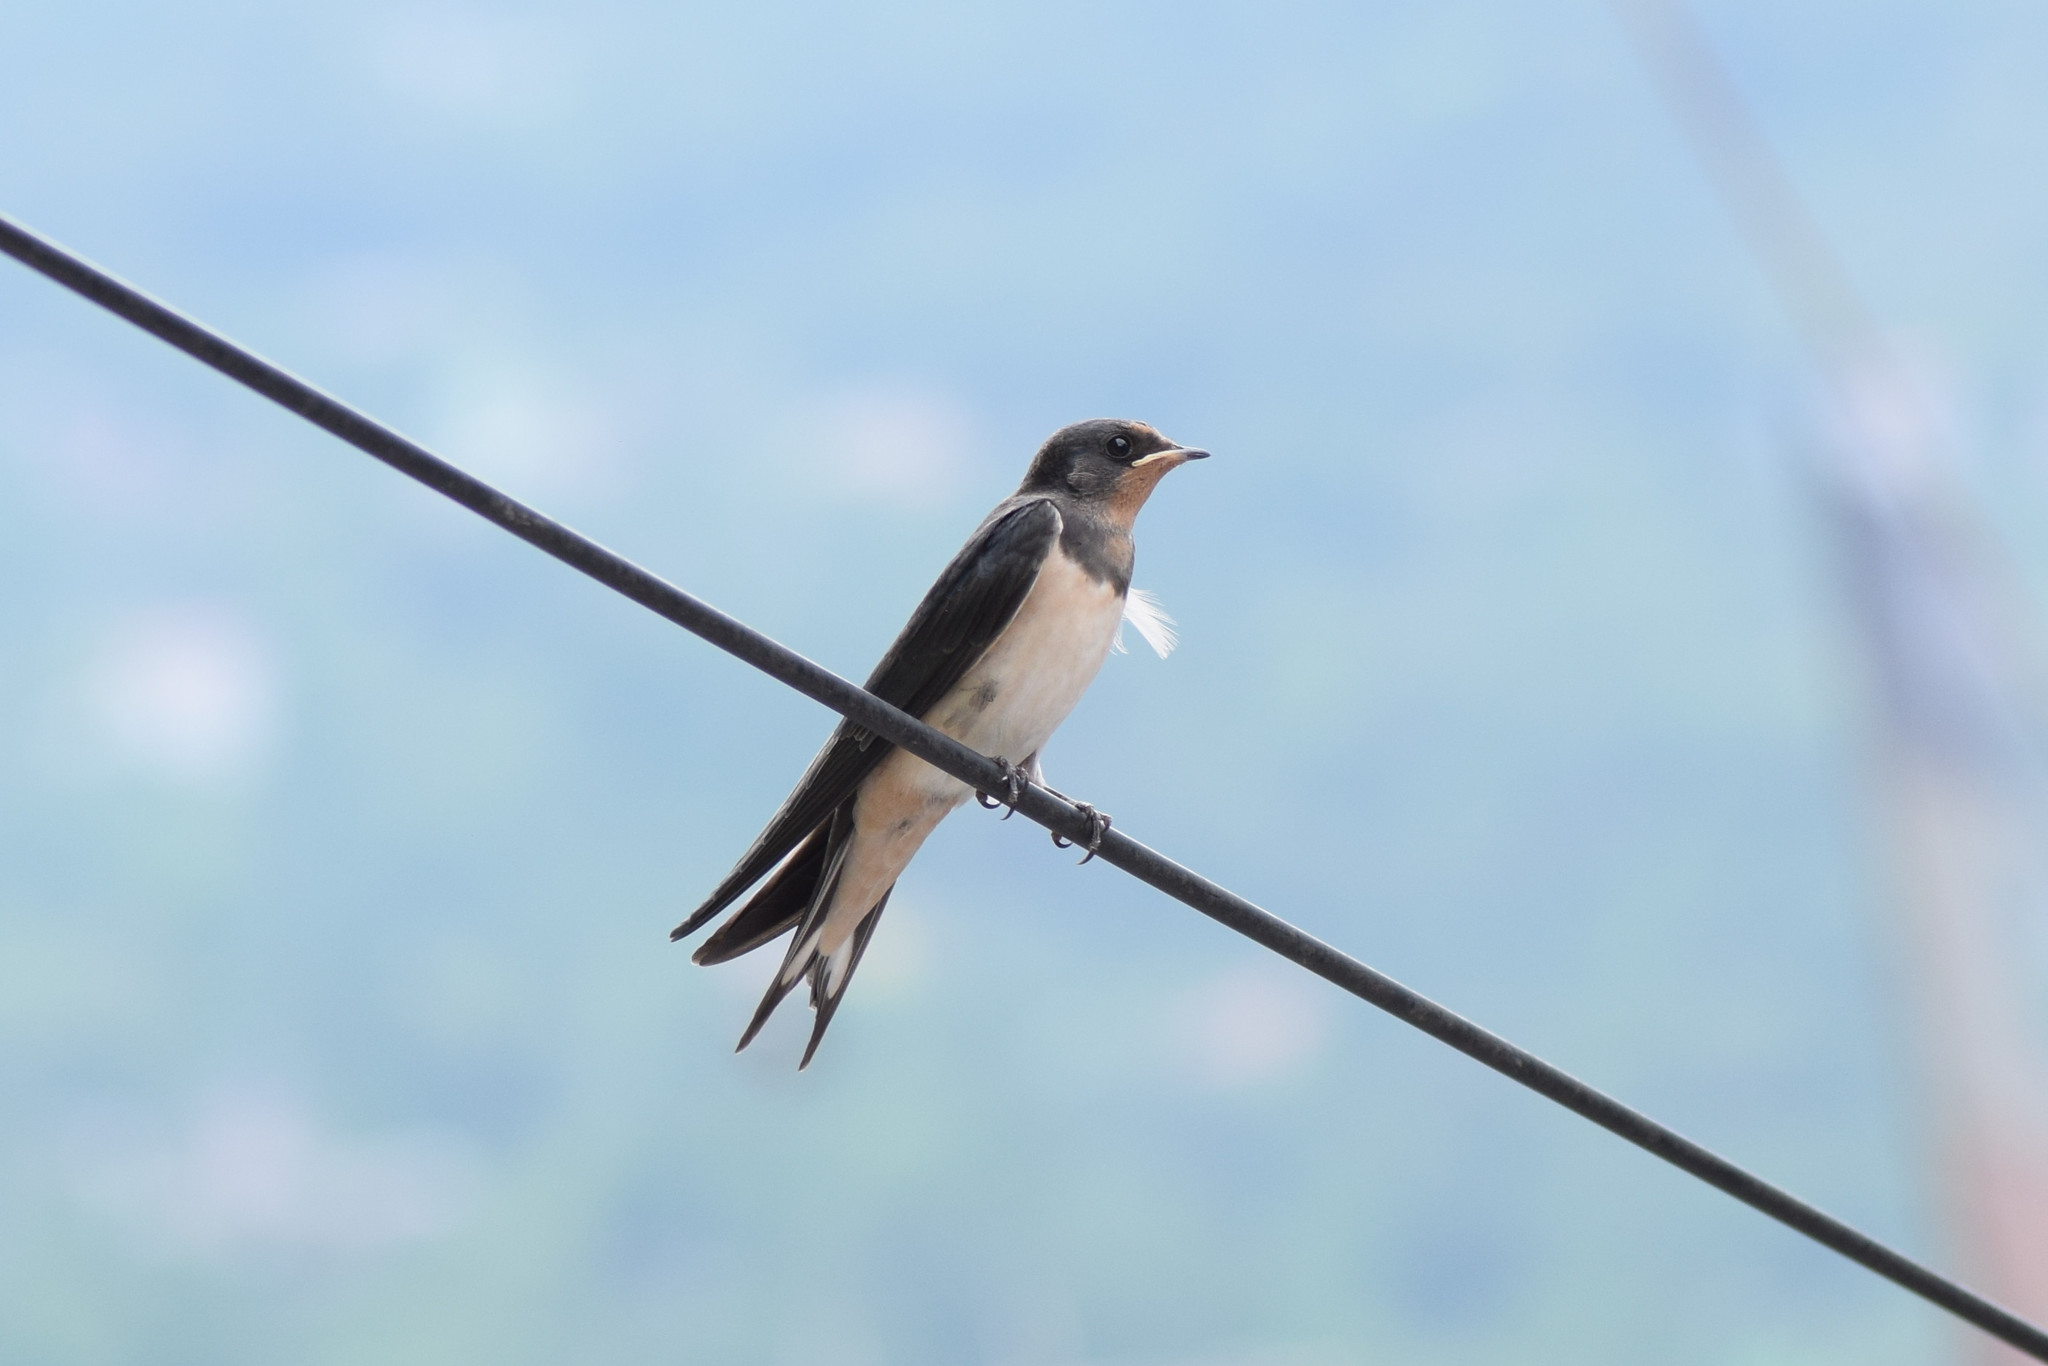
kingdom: Animalia
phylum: Chordata
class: Aves
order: Passeriformes
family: Hirundinidae
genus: Hirundo
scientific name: Hirundo rustica
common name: Barn swallow
